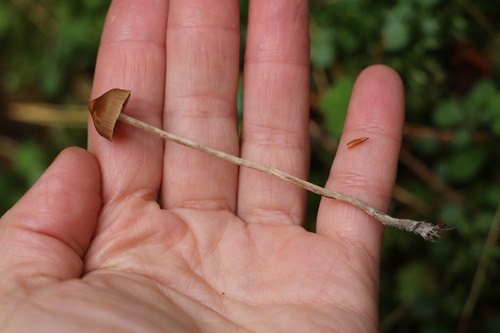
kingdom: Fungi
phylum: Basidiomycota
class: Agaricomycetes
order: Agaricales
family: Strophariaceae
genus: Deconica
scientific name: Deconica
